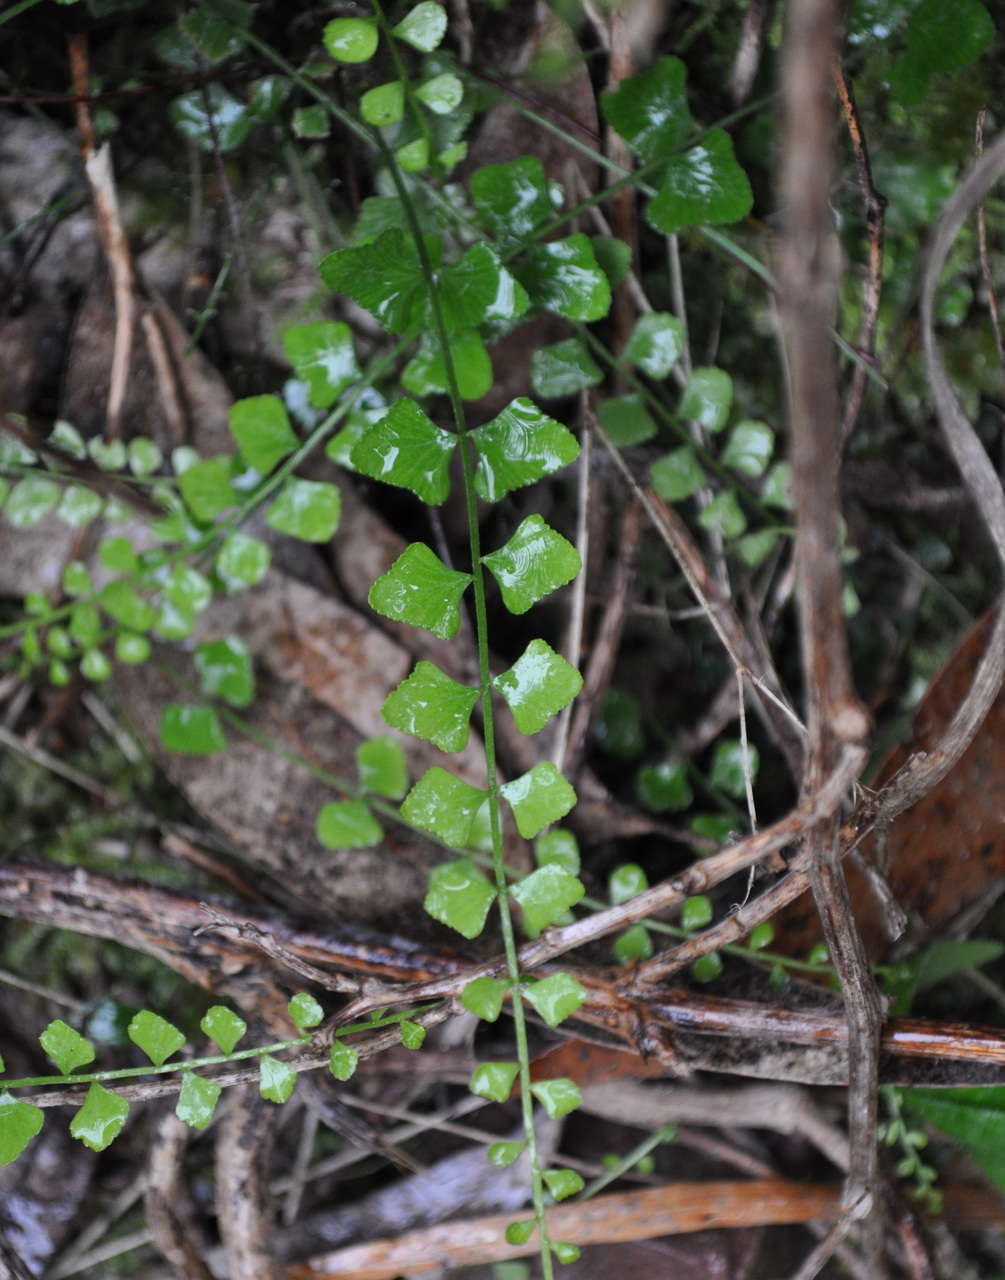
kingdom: Plantae
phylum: Tracheophyta
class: Polypodiopsida
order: Polypodiales
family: Aspleniaceae
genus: Asplenium
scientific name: Asplenium flabellifolium
